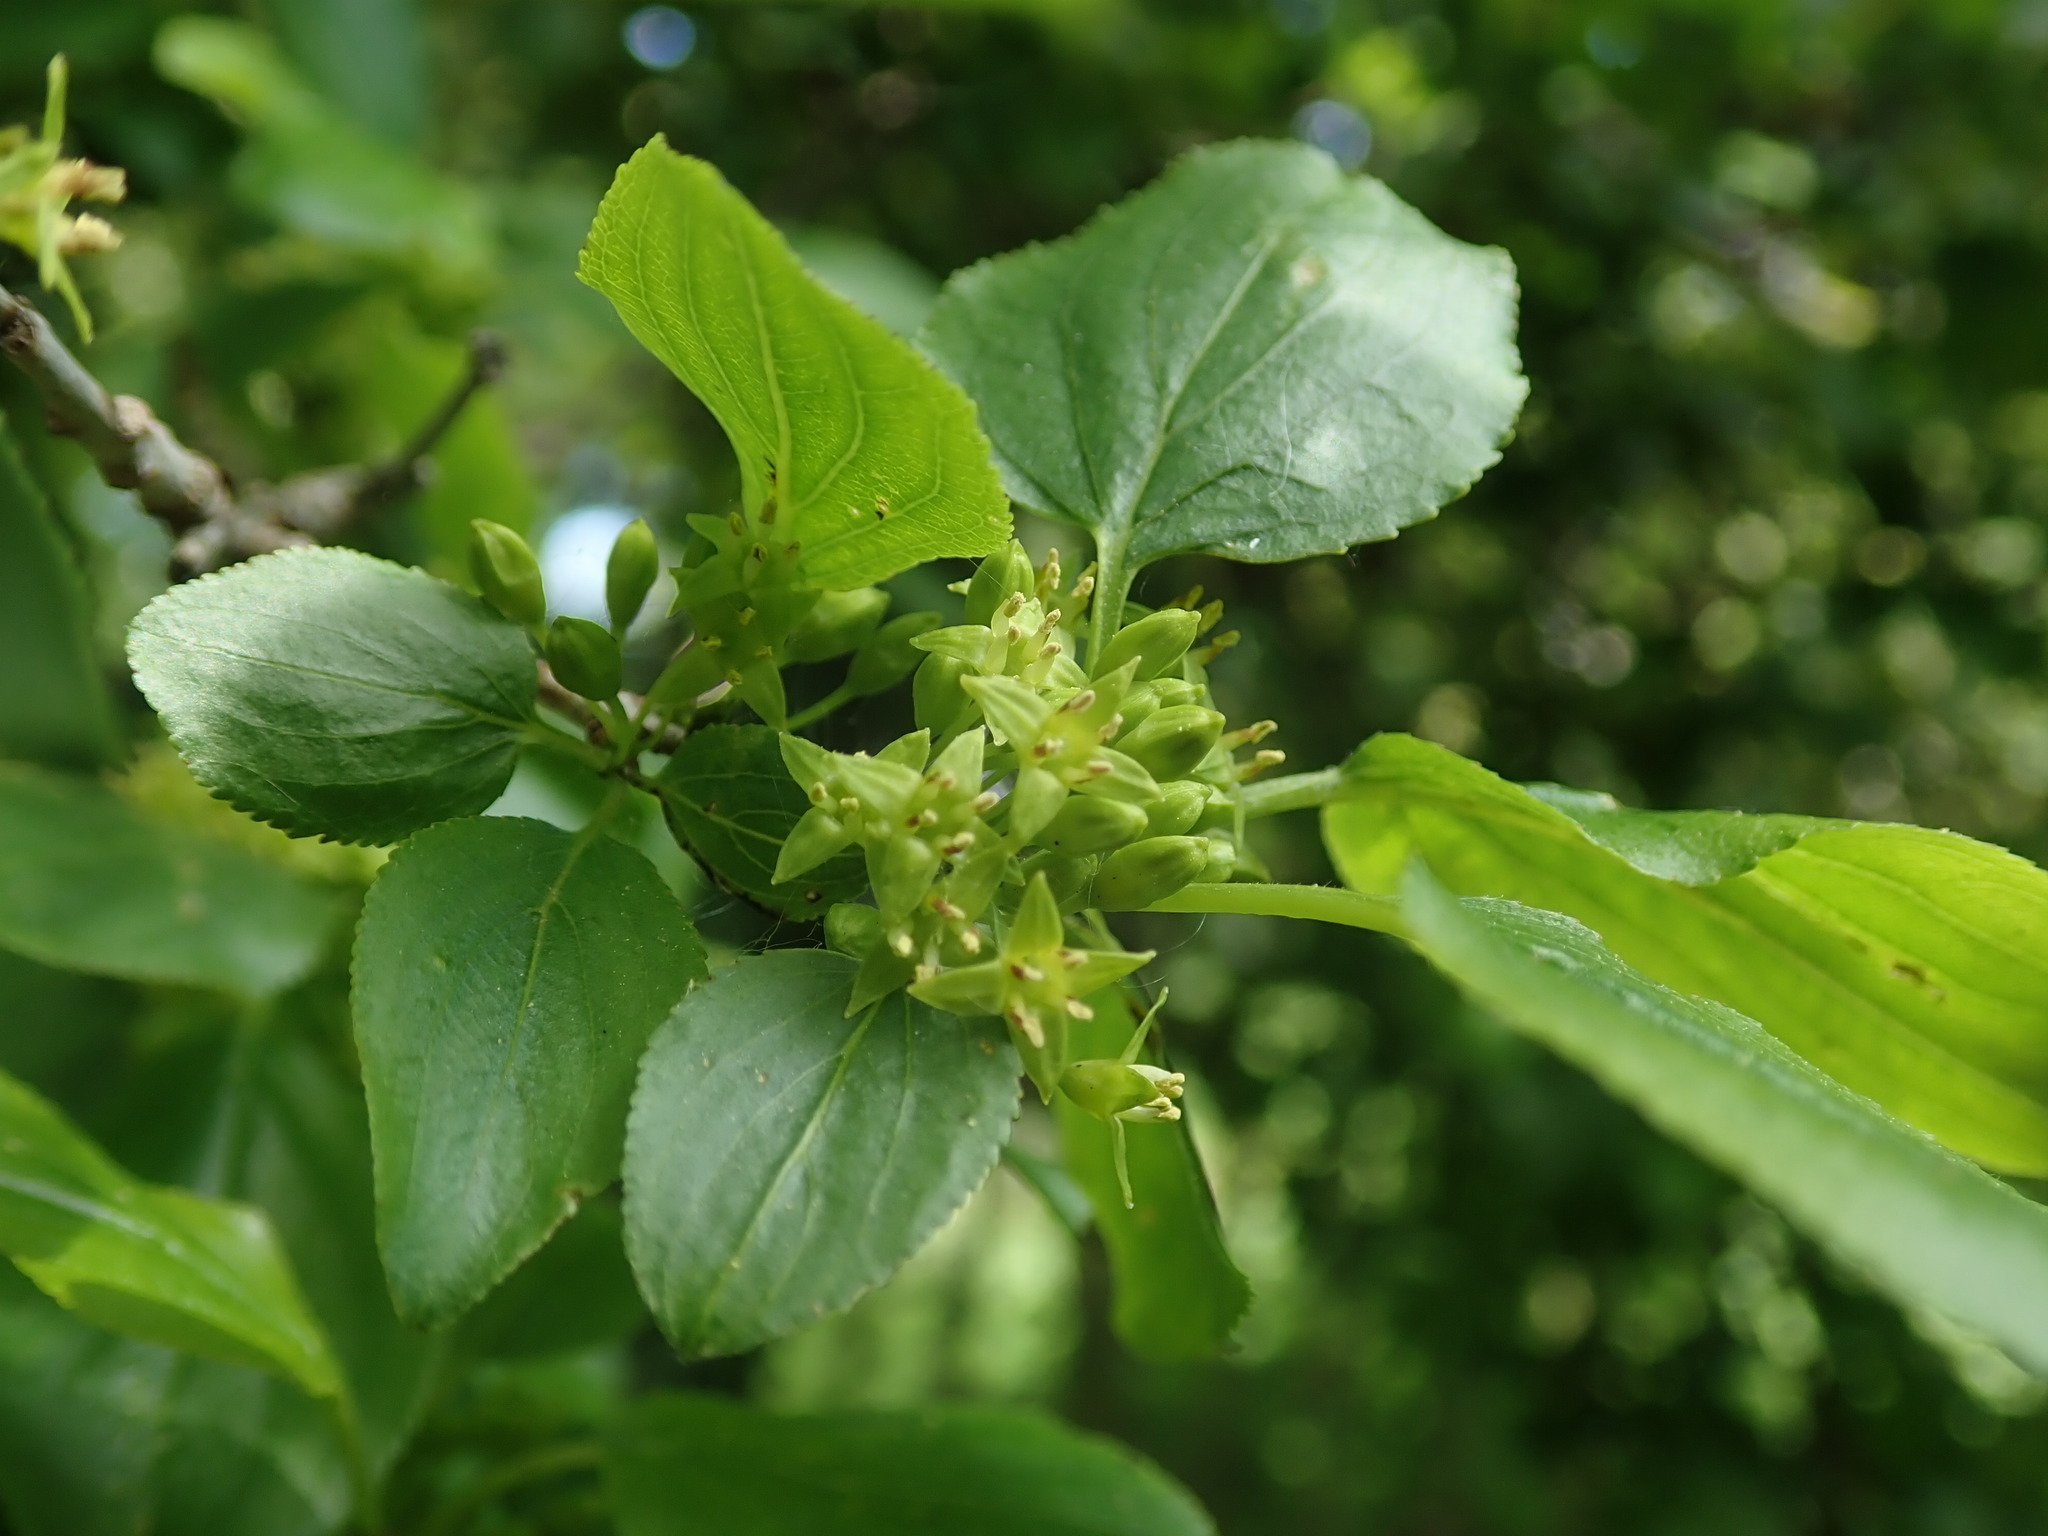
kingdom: Plantae
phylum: Tracheophyta
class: Magnoliopsida
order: Rosales
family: Rhamnaceae
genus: Rhamnus
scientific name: Rhamnus cathartica
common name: Common buckthorn
